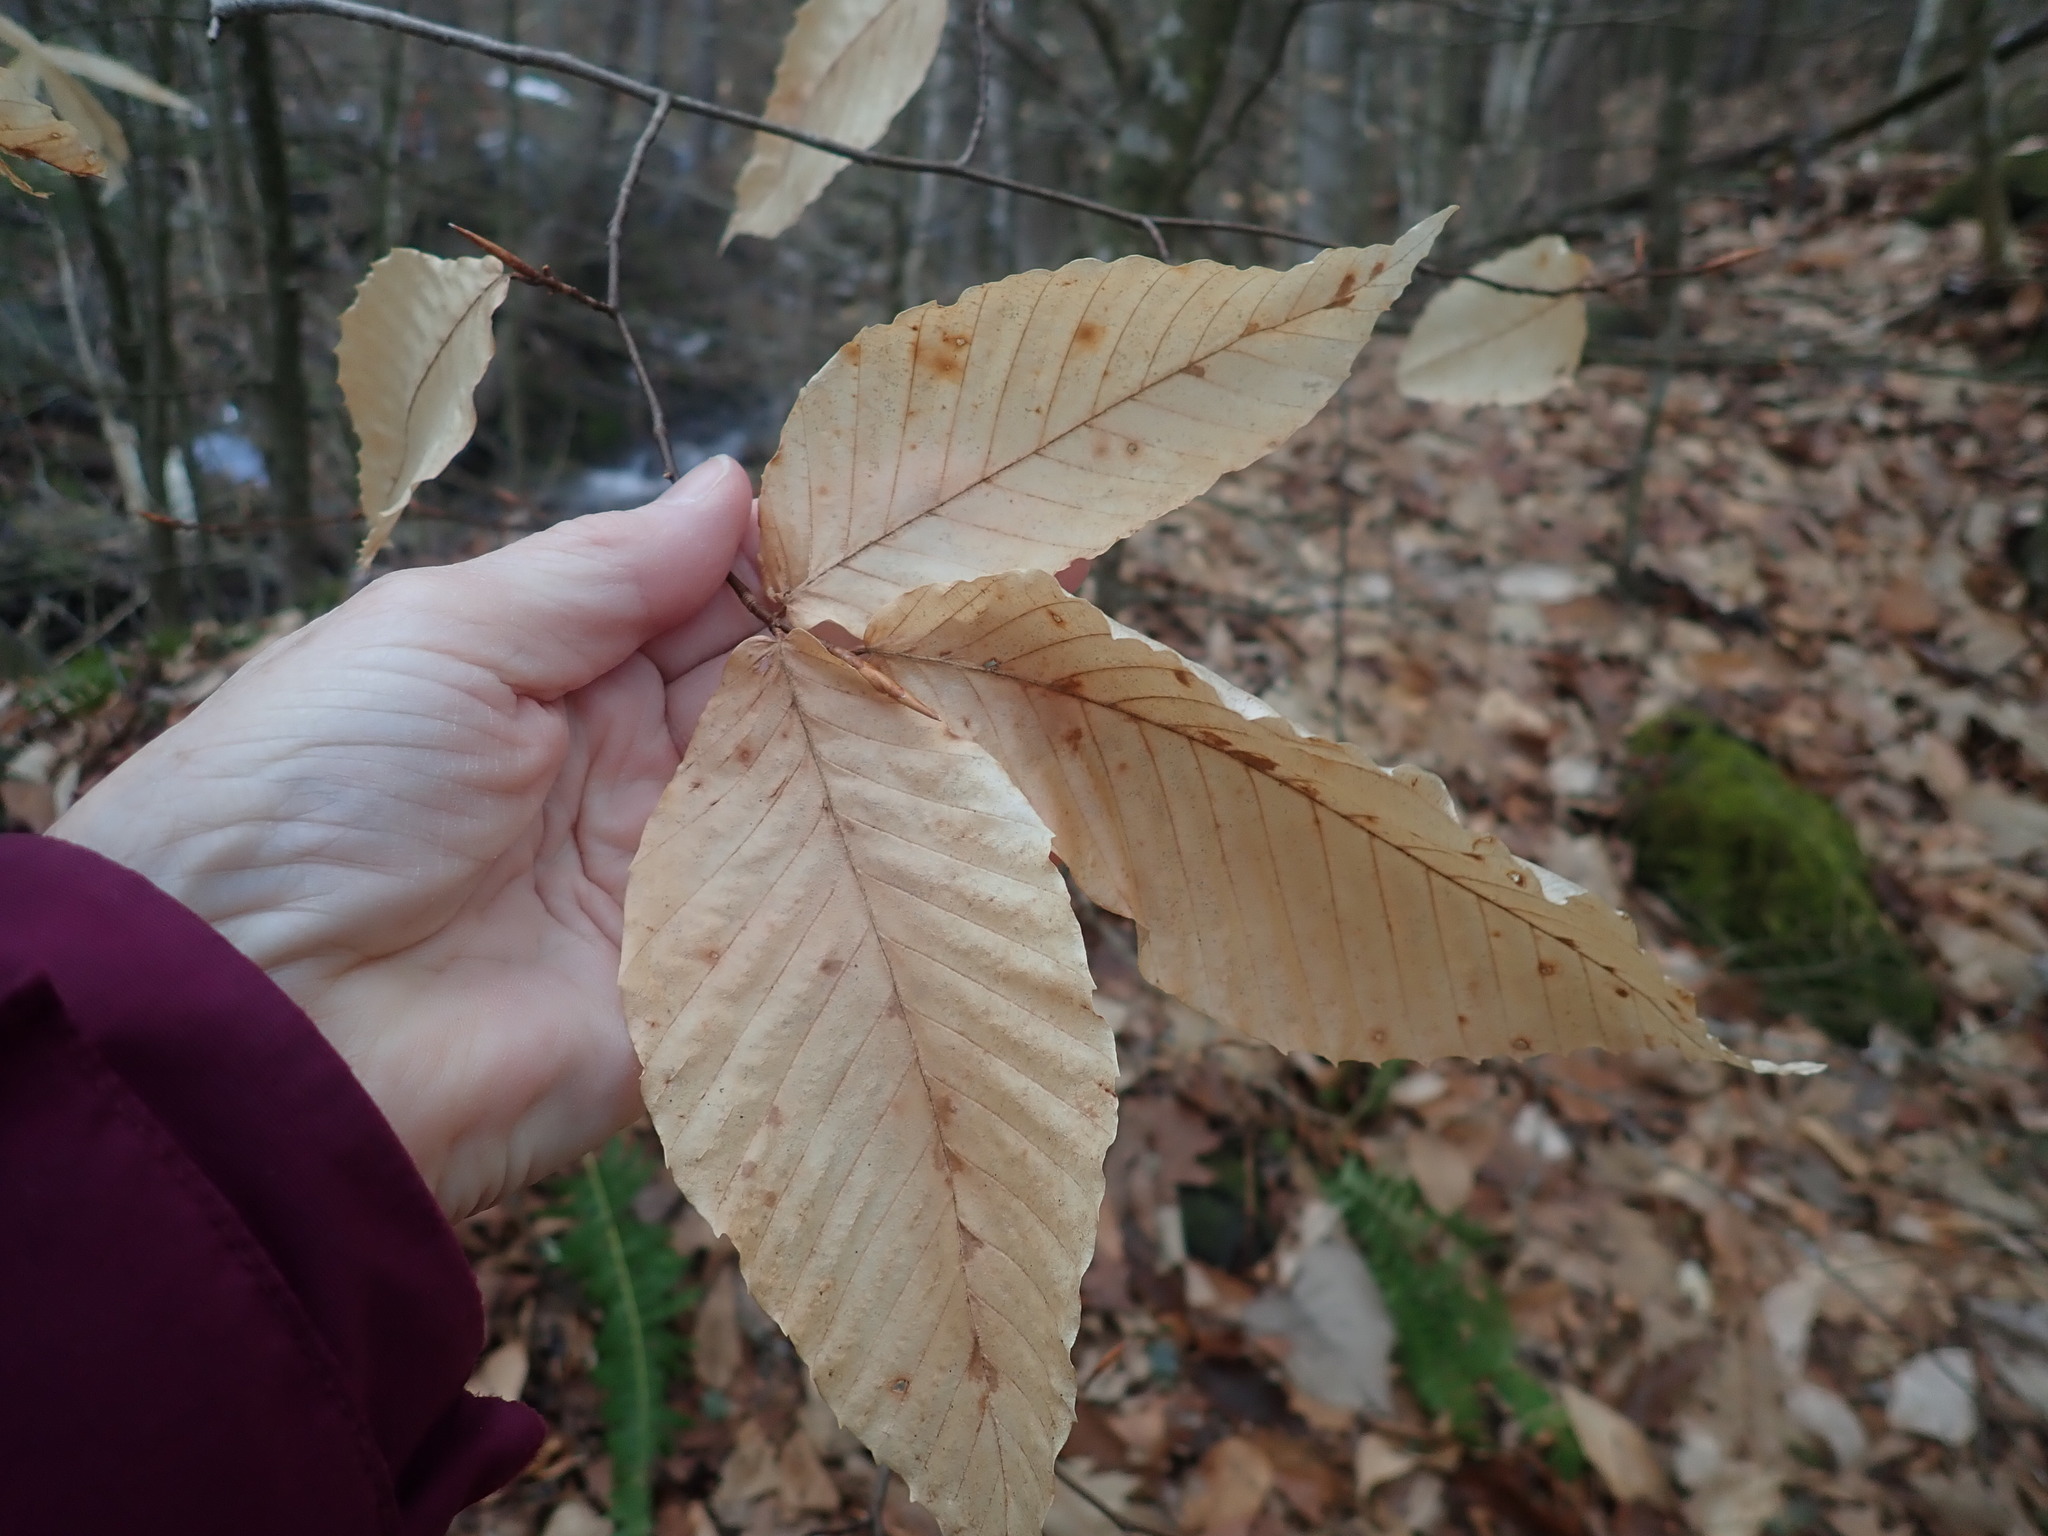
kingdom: Plantae
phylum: Tracheophyta
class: Magnoliopsida
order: Fagales
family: Fagaceae
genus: Fagus
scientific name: Fagus grandifolia
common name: American beech
